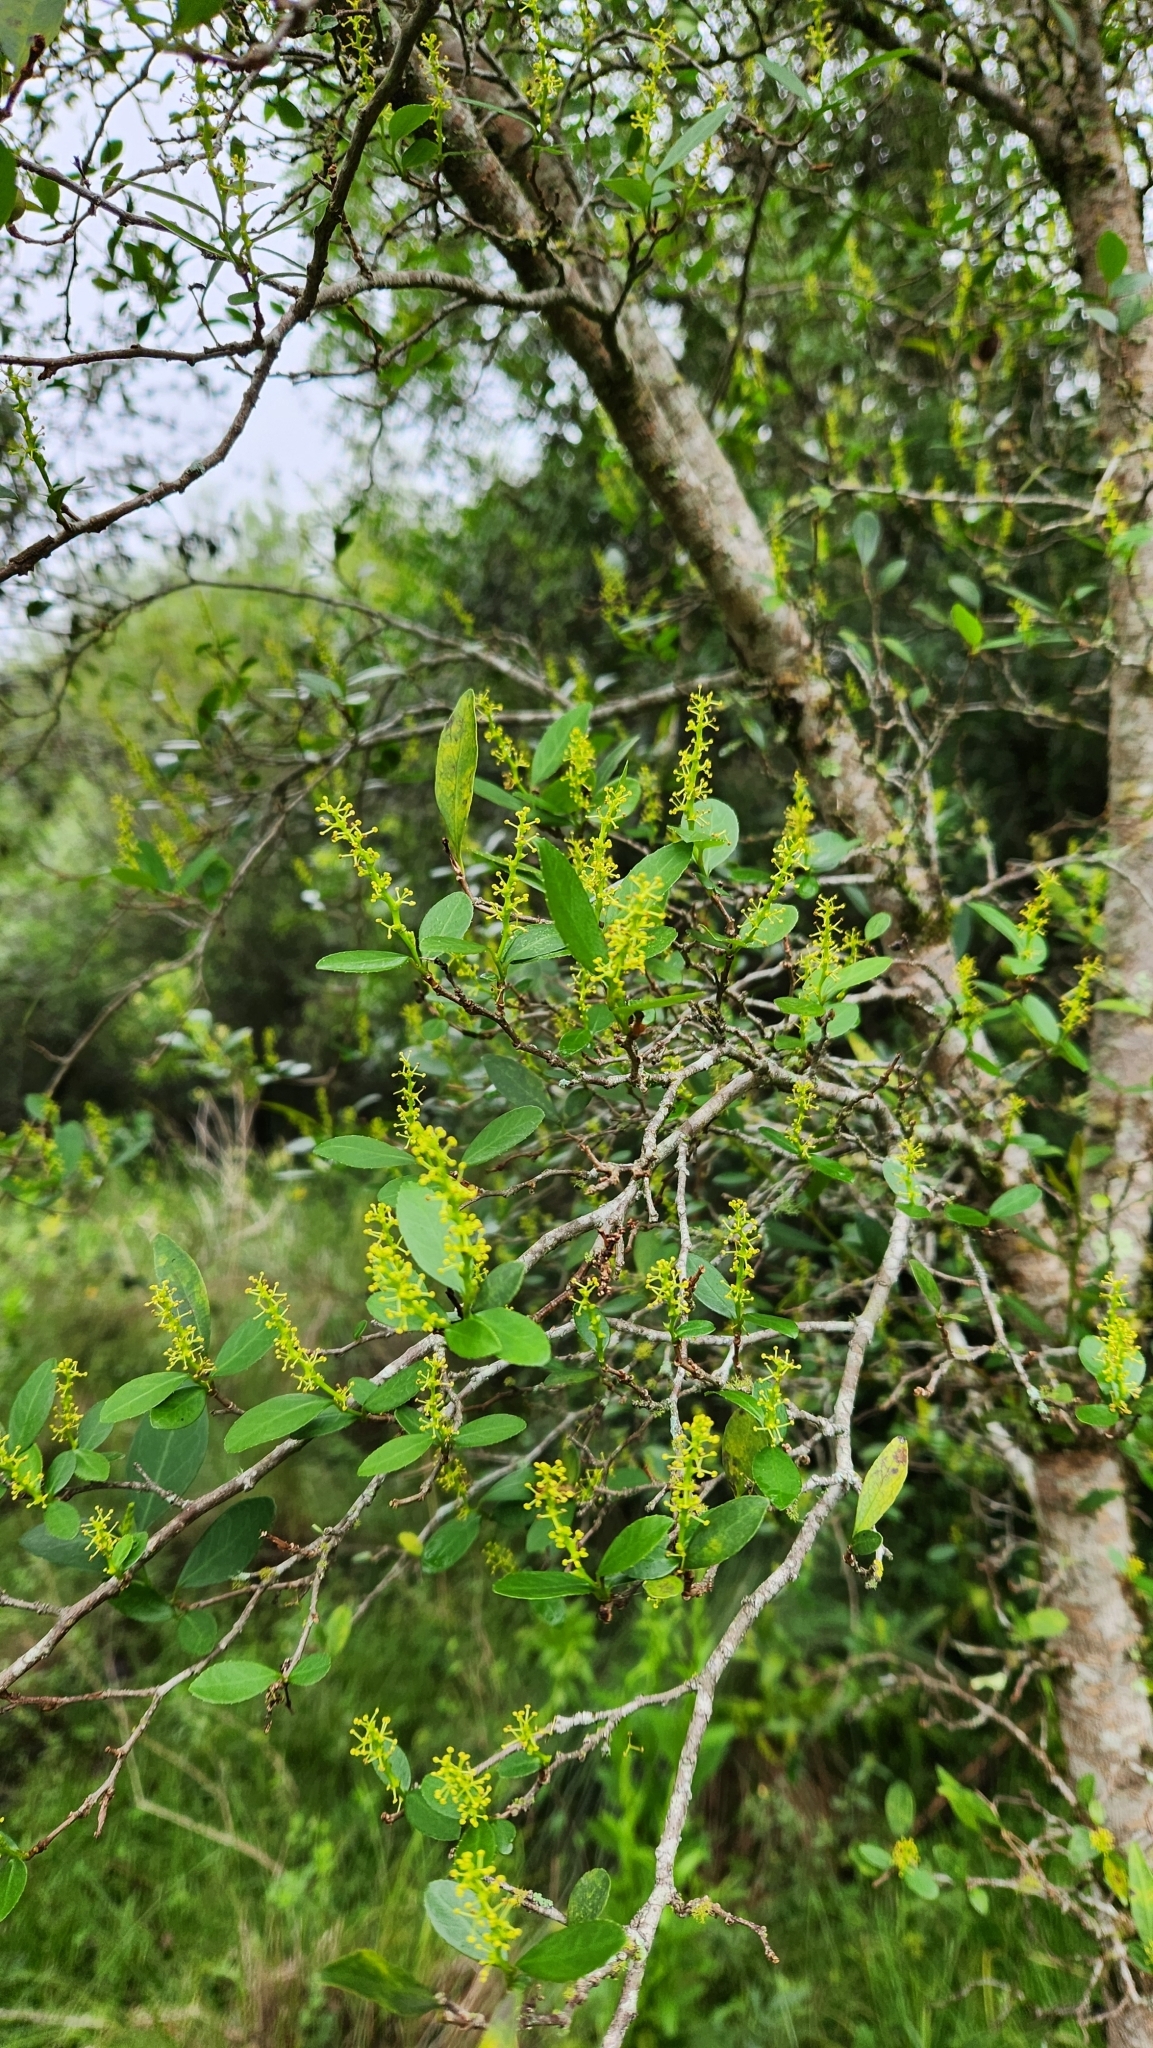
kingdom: Plantae
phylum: Tracheophyta
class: Magnoliopsida
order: Malpighiales
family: Euphorbiaceae
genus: Sebastiania
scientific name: Sebastiania brasiliensis
